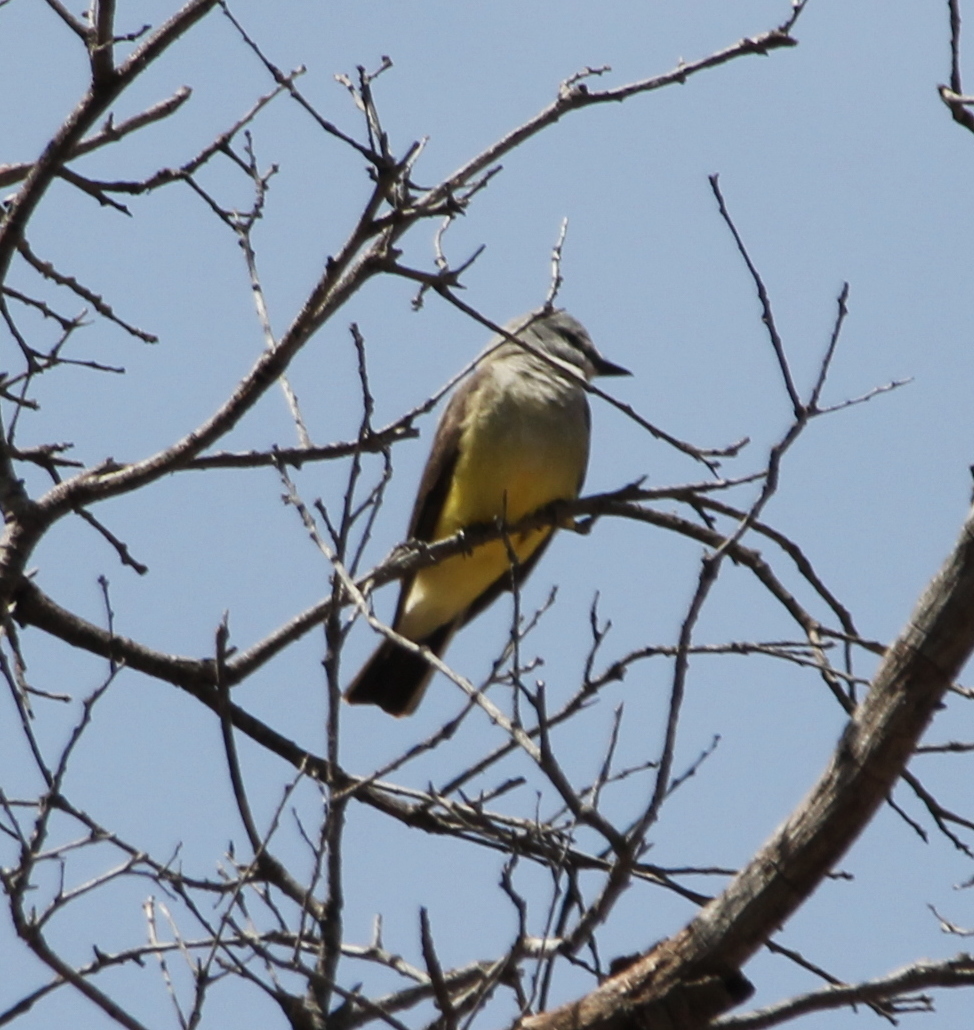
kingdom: Animalia
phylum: Chordata
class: Aves
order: Passeriformes
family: Tyrannidae
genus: Tyrannus
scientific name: Tyrannus verticalis
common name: Western kingbird
